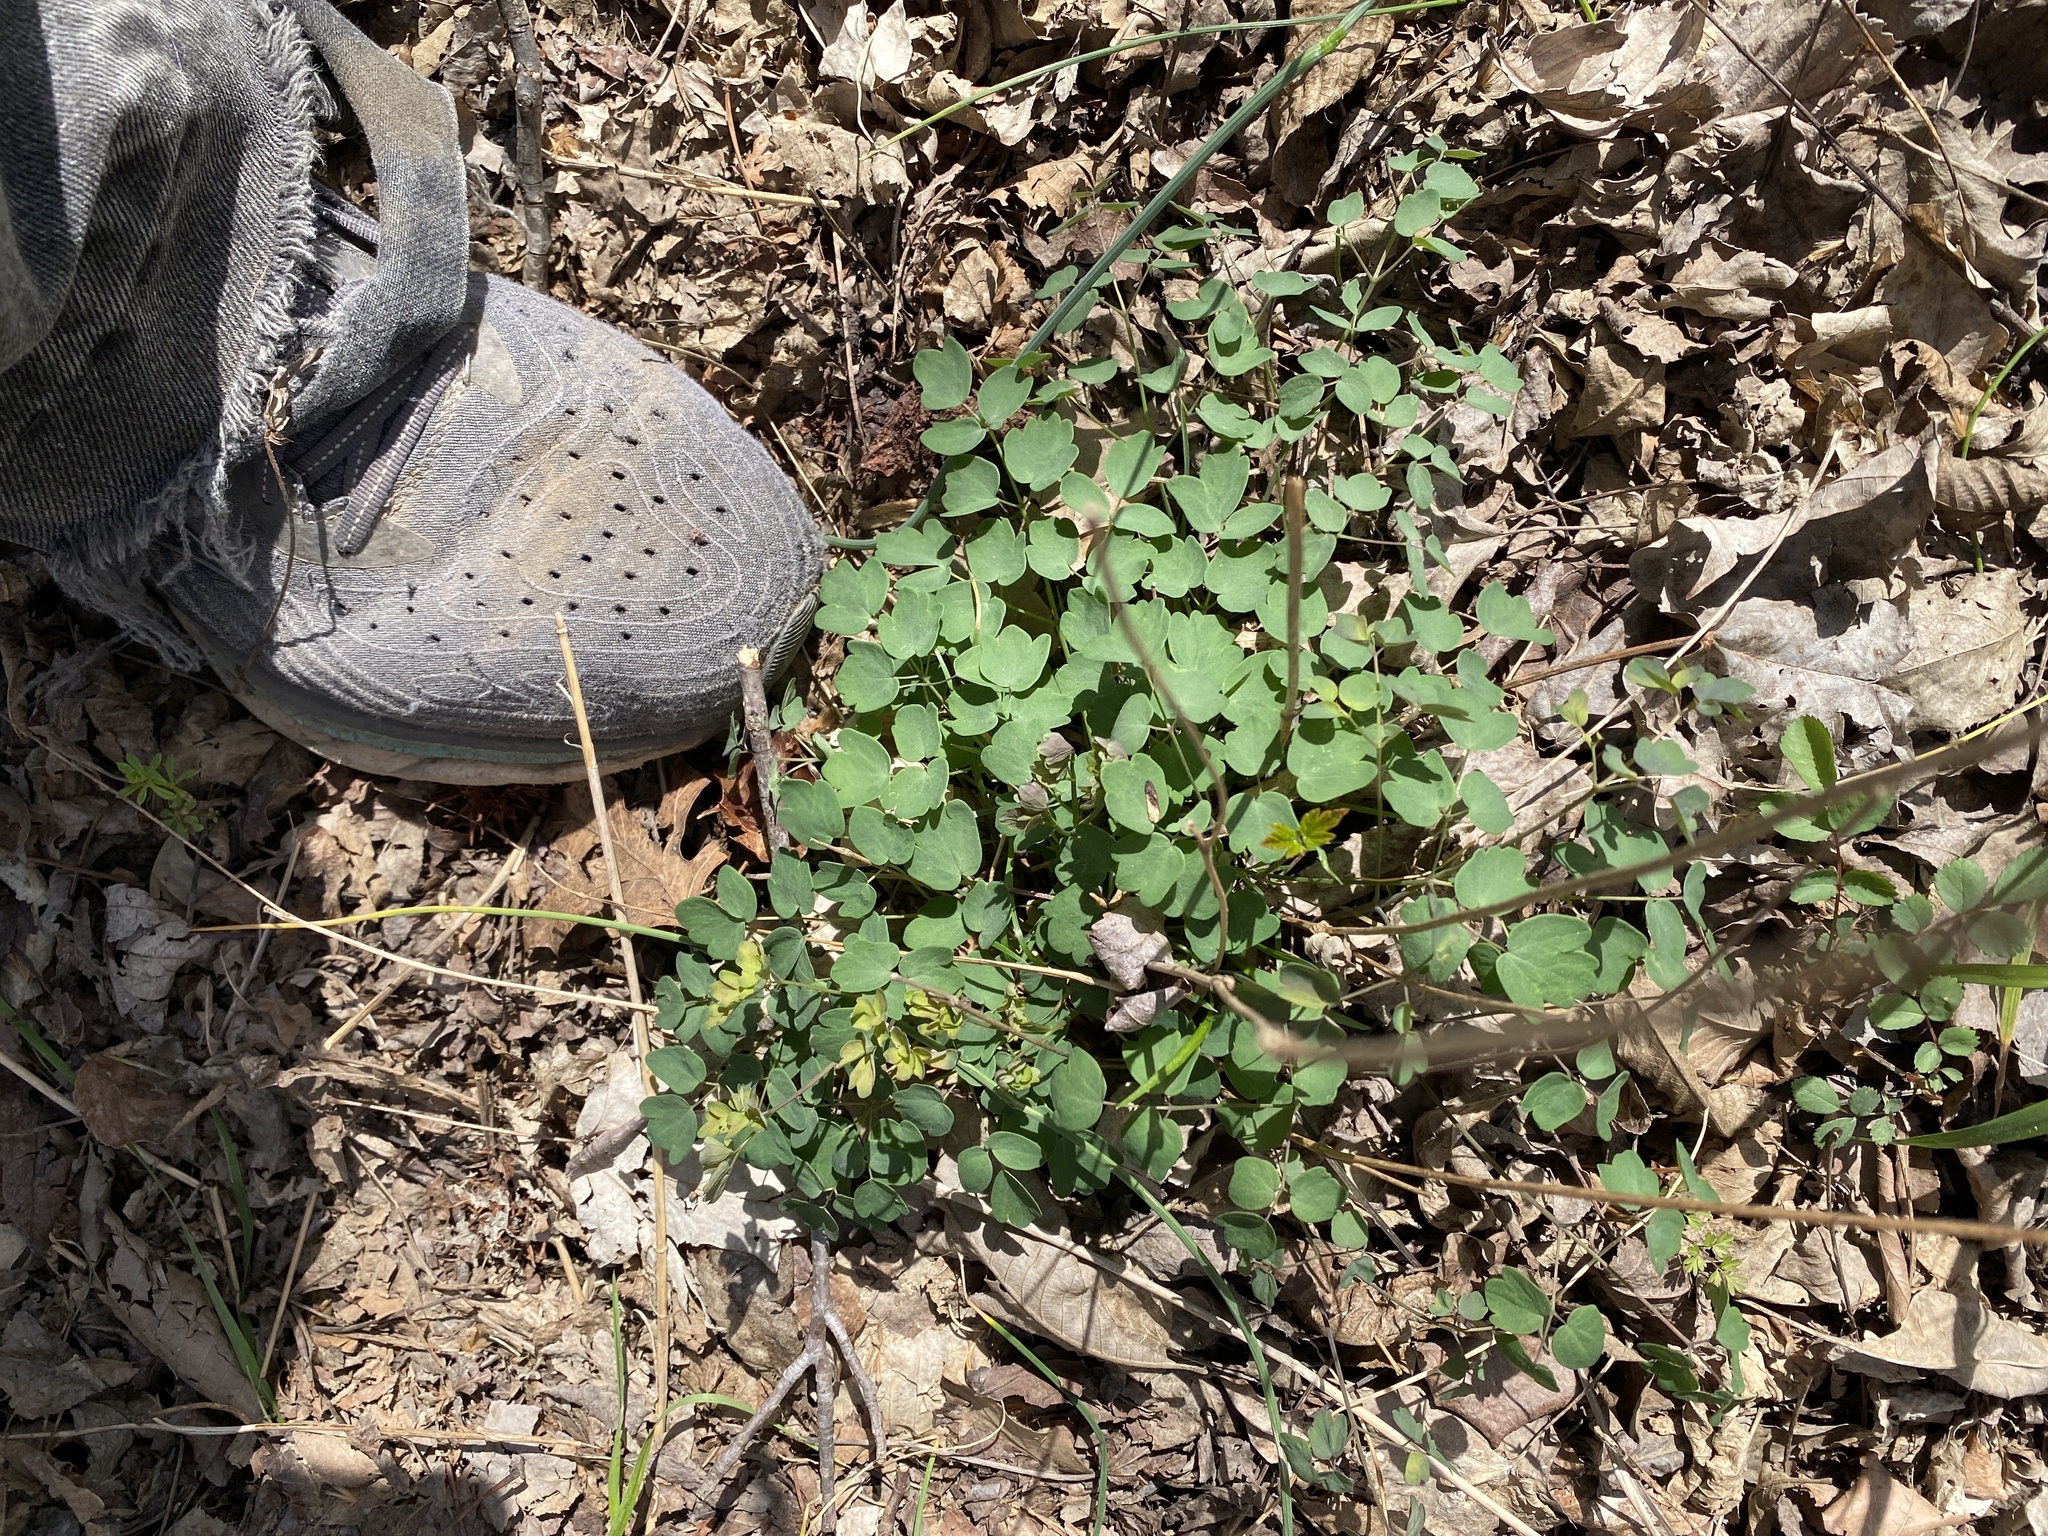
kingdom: Plantae
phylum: Tracheophyta
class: Magnoliopsida
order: Ranunculales
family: Ranunculaceae
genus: Thalictrum
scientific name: Thalictrum dioicum
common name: Early meadow-rue
